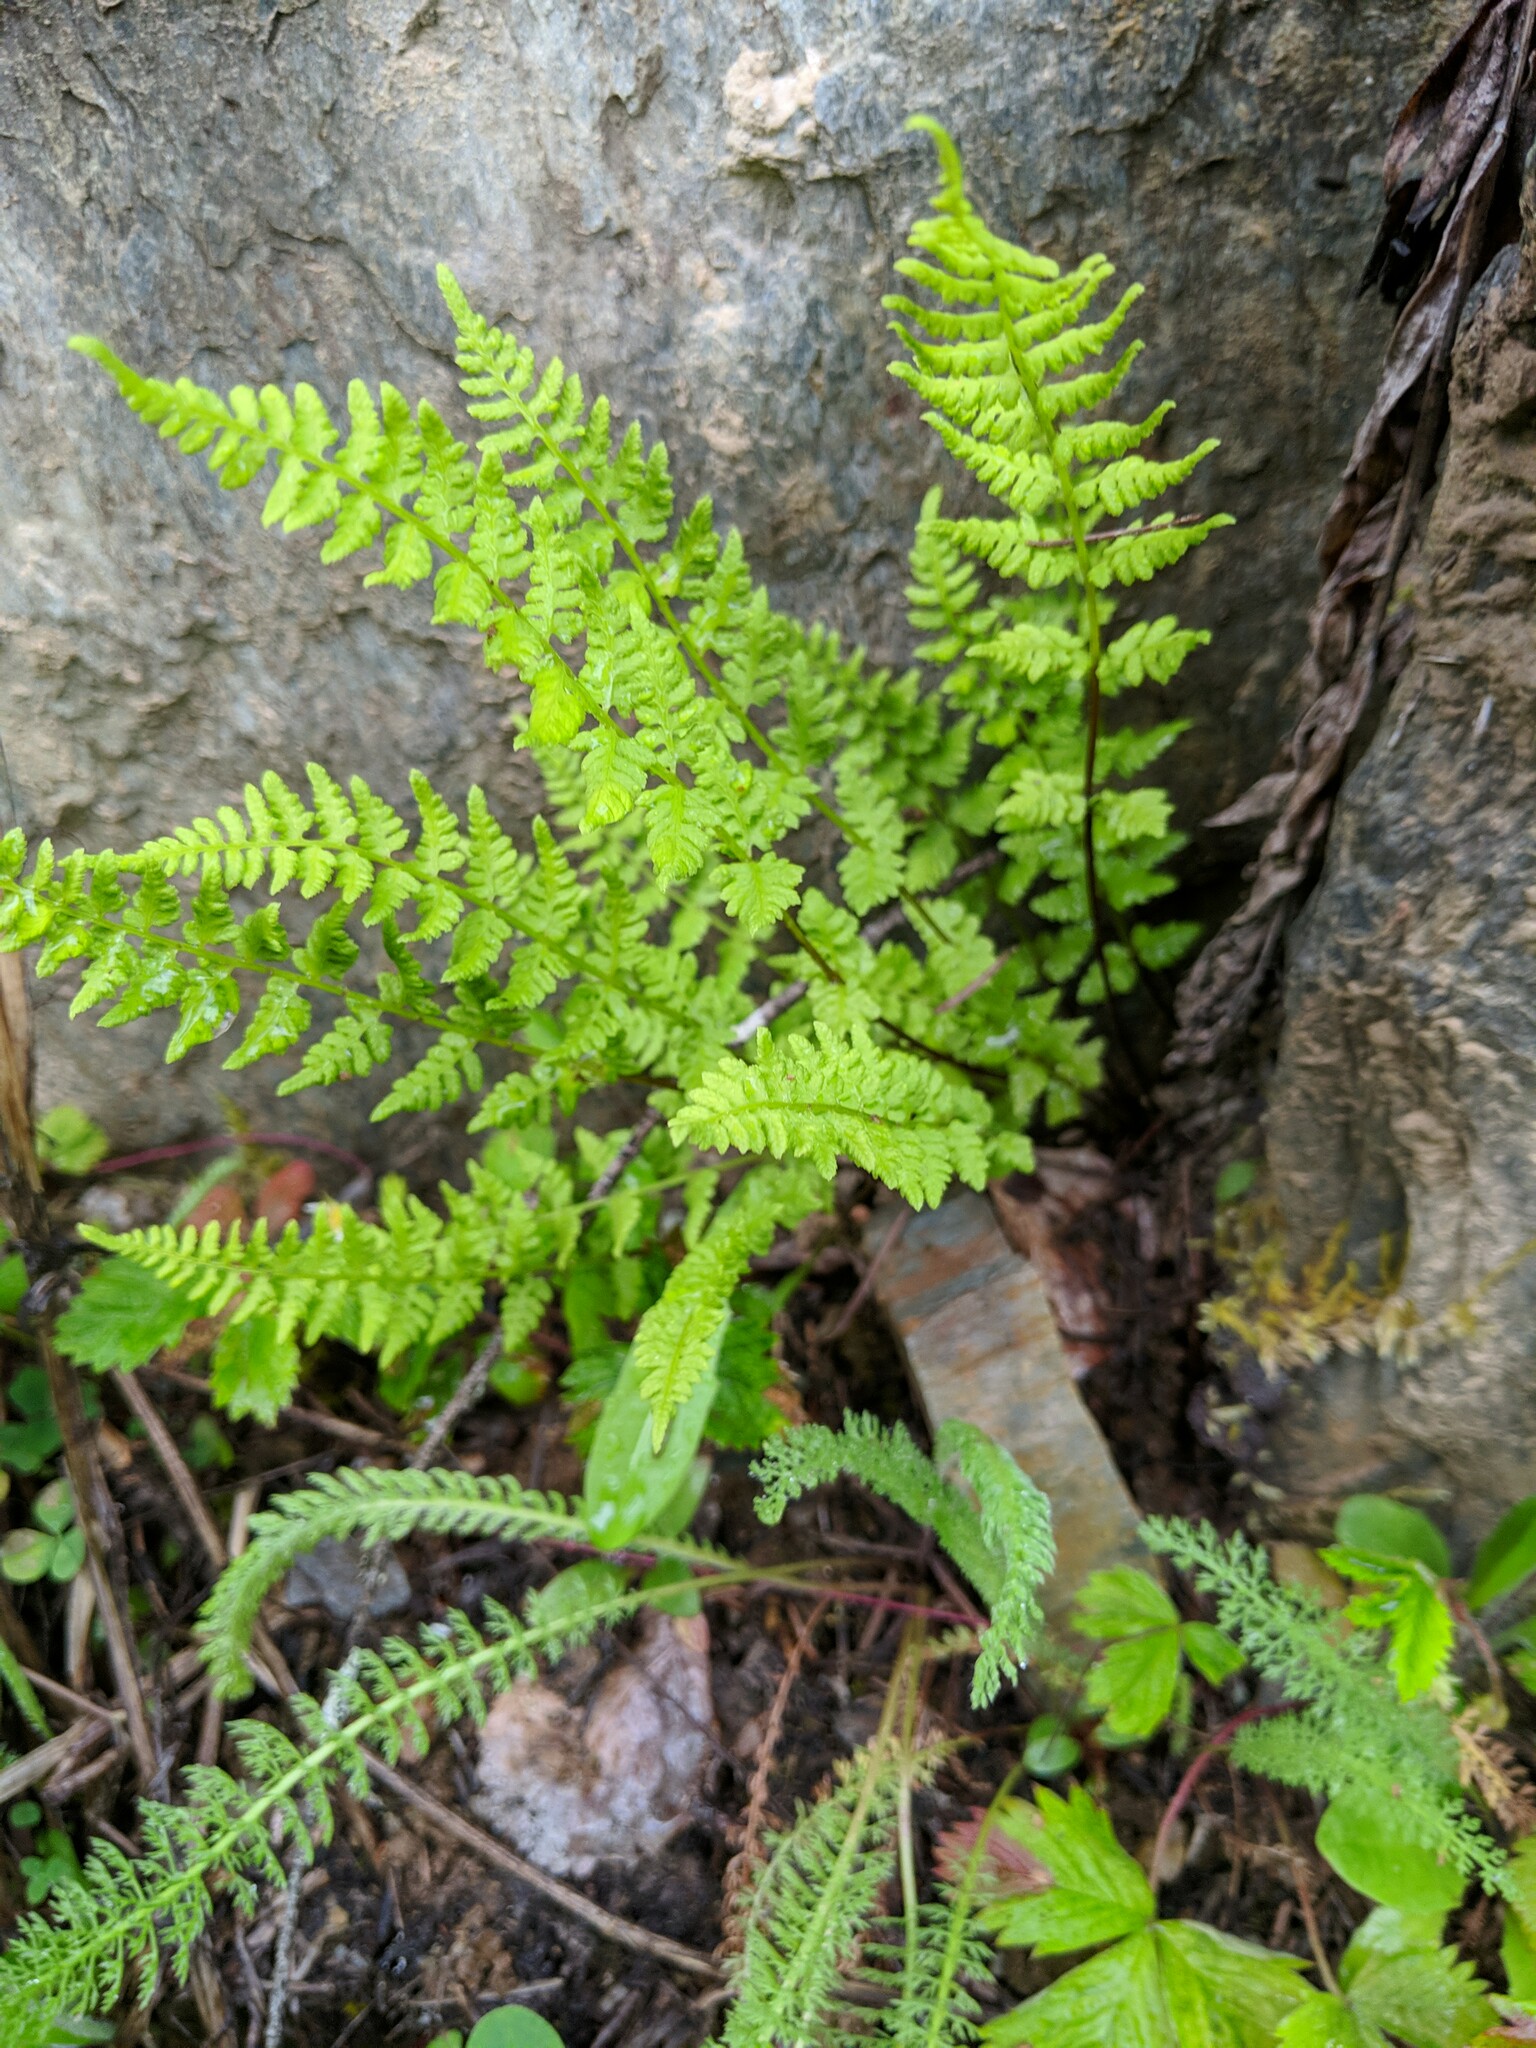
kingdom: Plantae
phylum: Tracheophyta
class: Polypodiopsida
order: Polypodiales
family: Cystopteridaceae
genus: Cystopteris
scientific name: Cystopteris fragilis
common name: Brittle bladder fern
